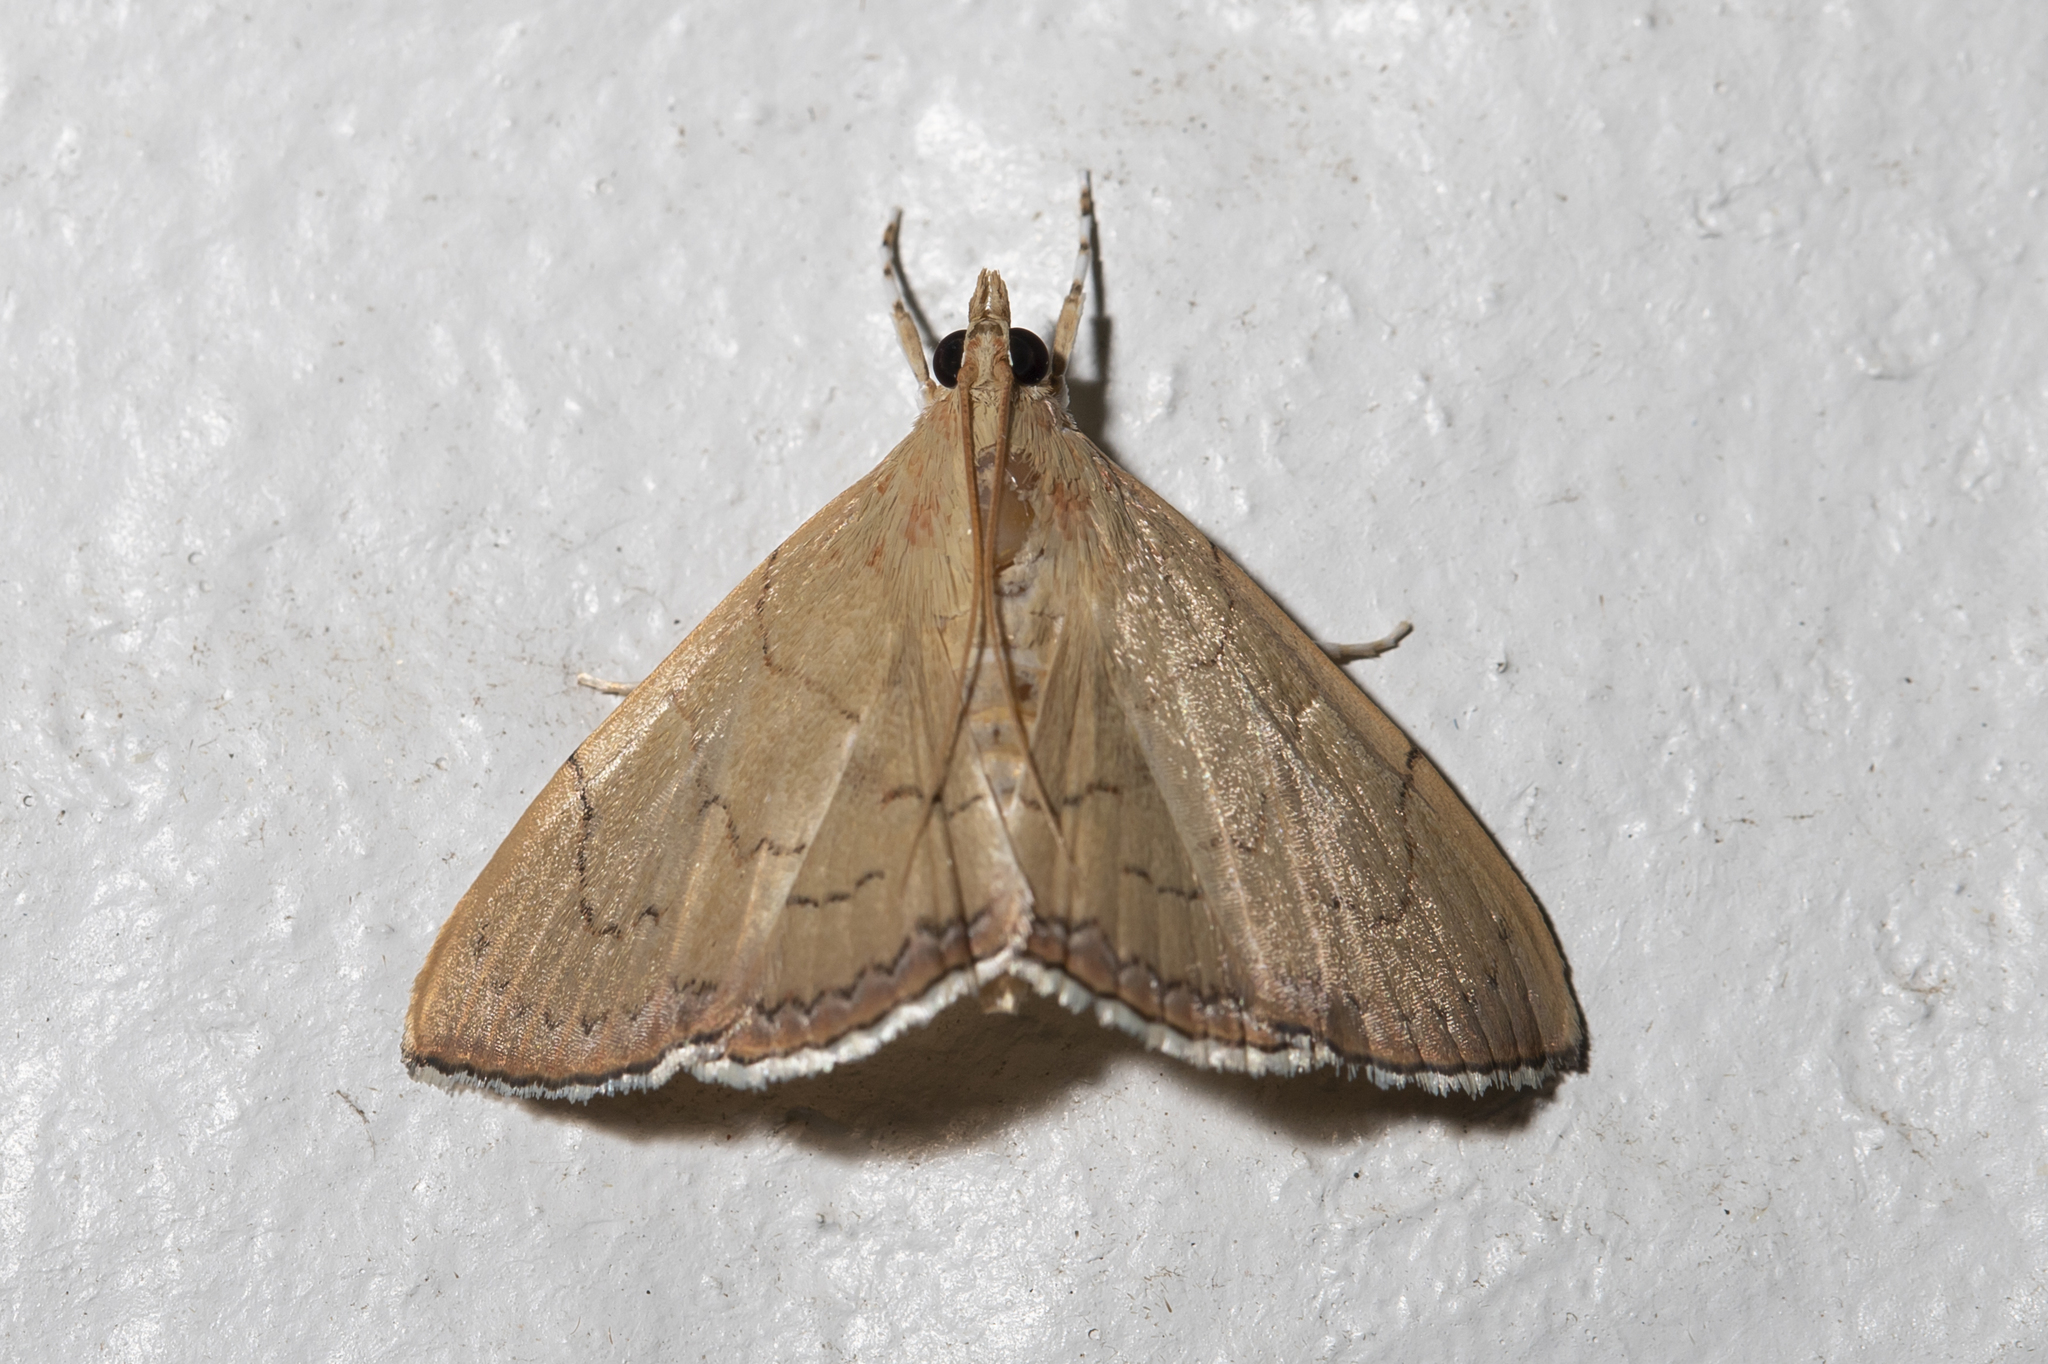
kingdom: Animalia
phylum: Arthropoda
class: Insecta
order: Lepidoptera
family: Crambidae
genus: Hyalobathra
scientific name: Hyalobathra crenulata
